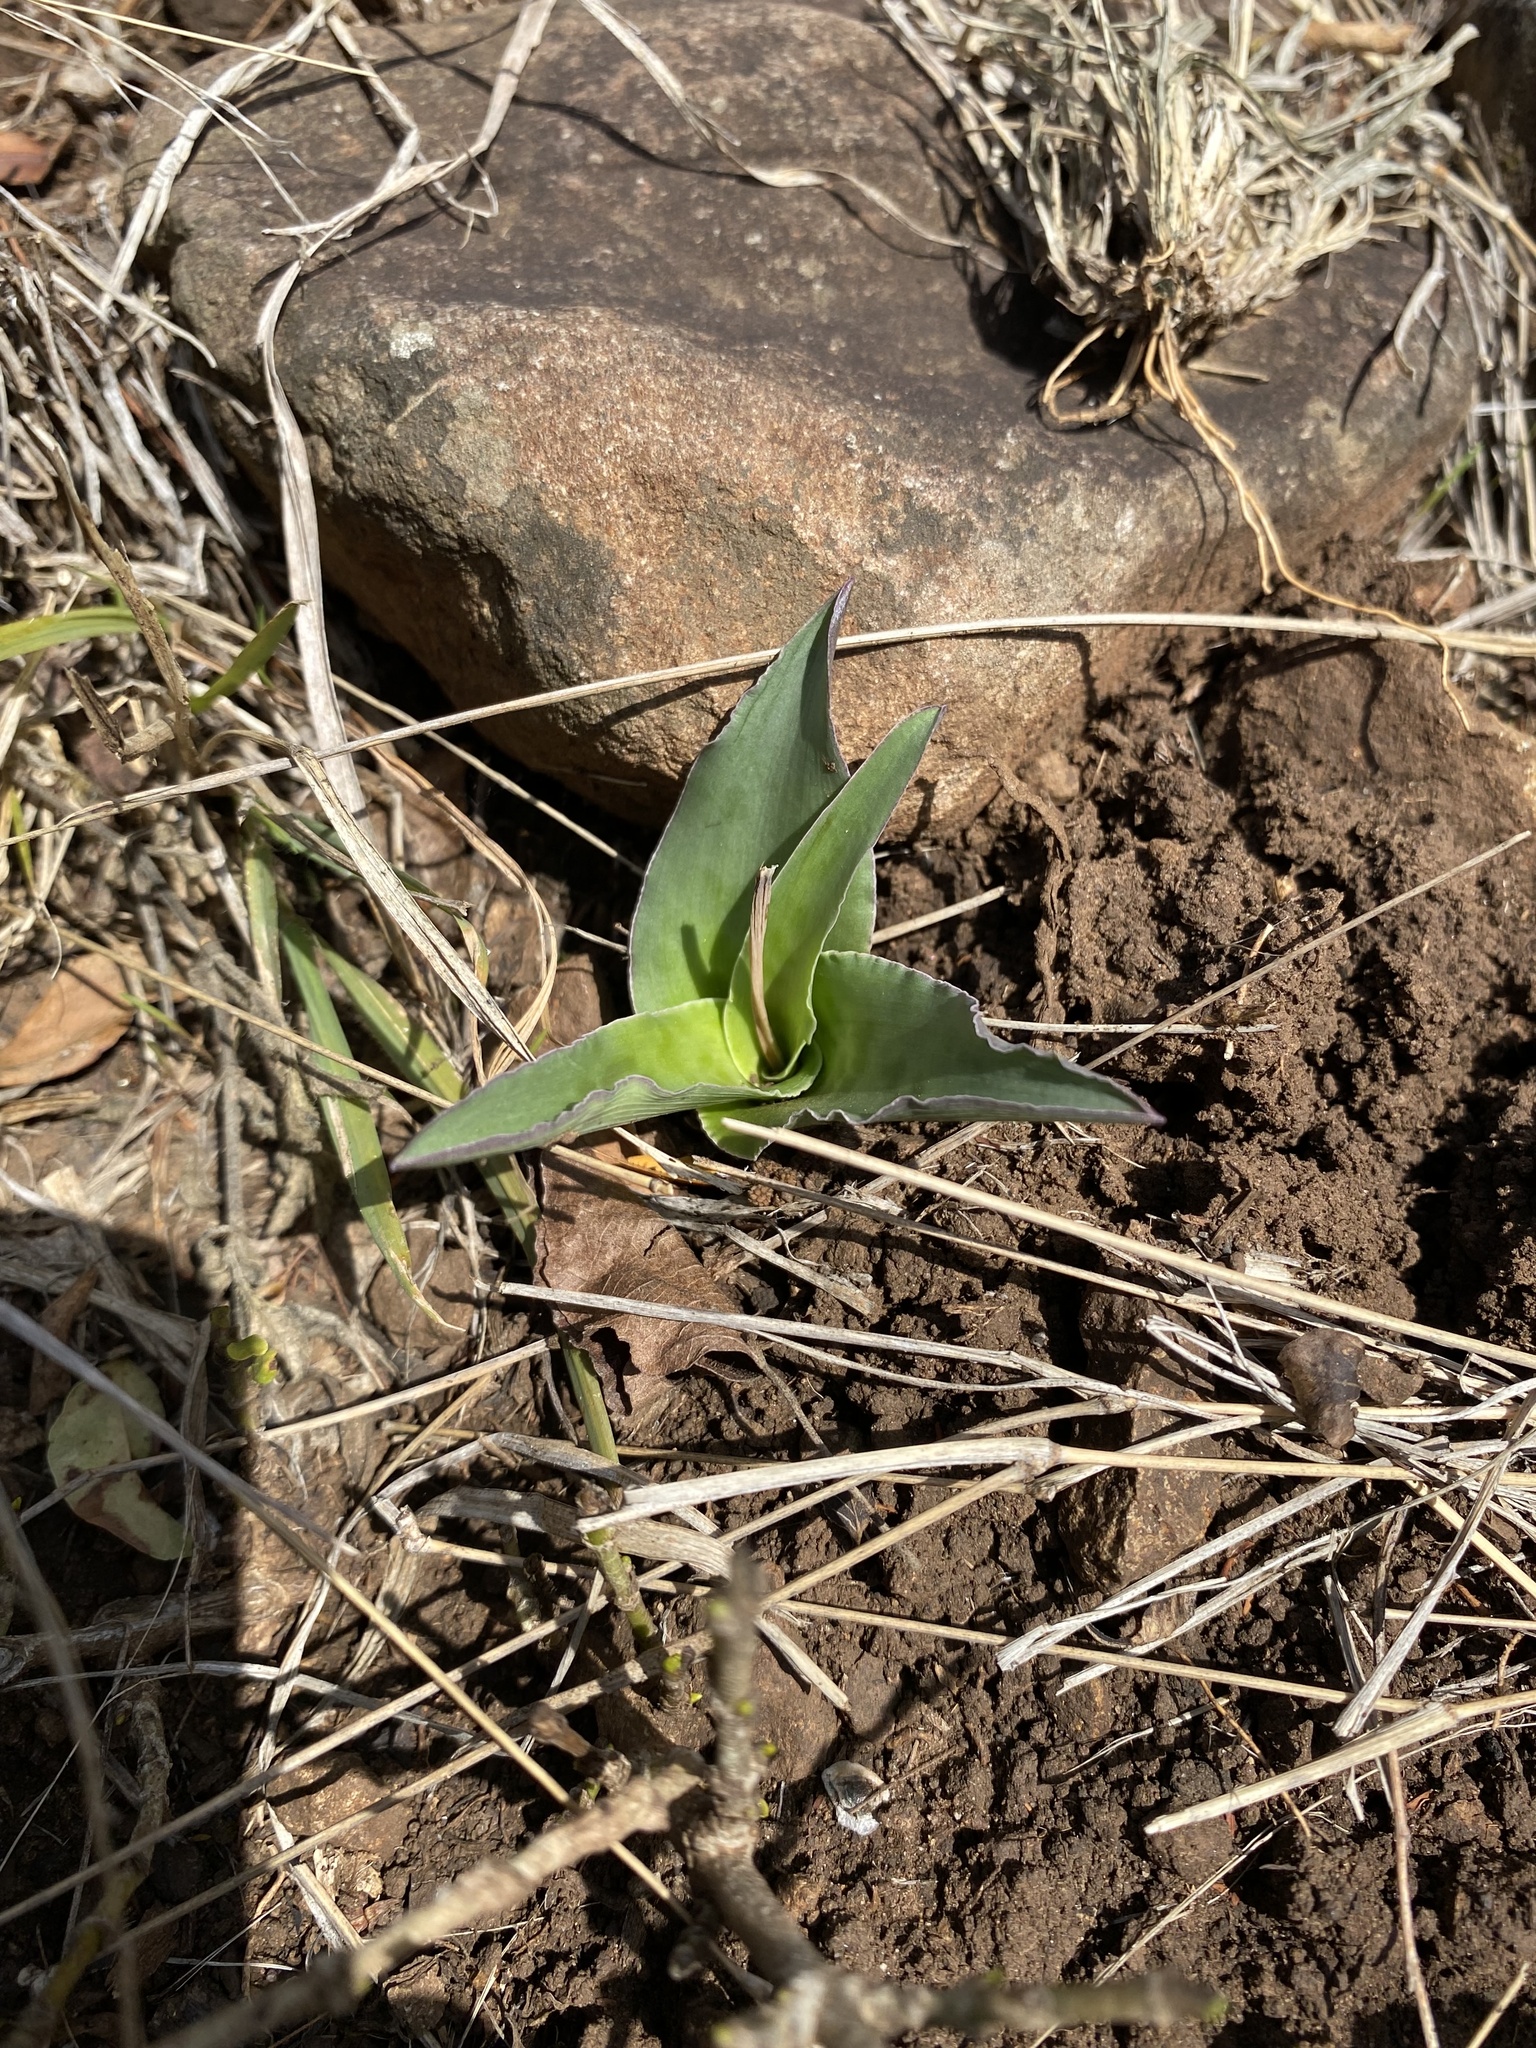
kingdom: Plantae
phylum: Tracheophyta
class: Liliopsida
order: Asparagales
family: Asparagaceae
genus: Ledebouria
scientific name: Ledebouria asperifolia
